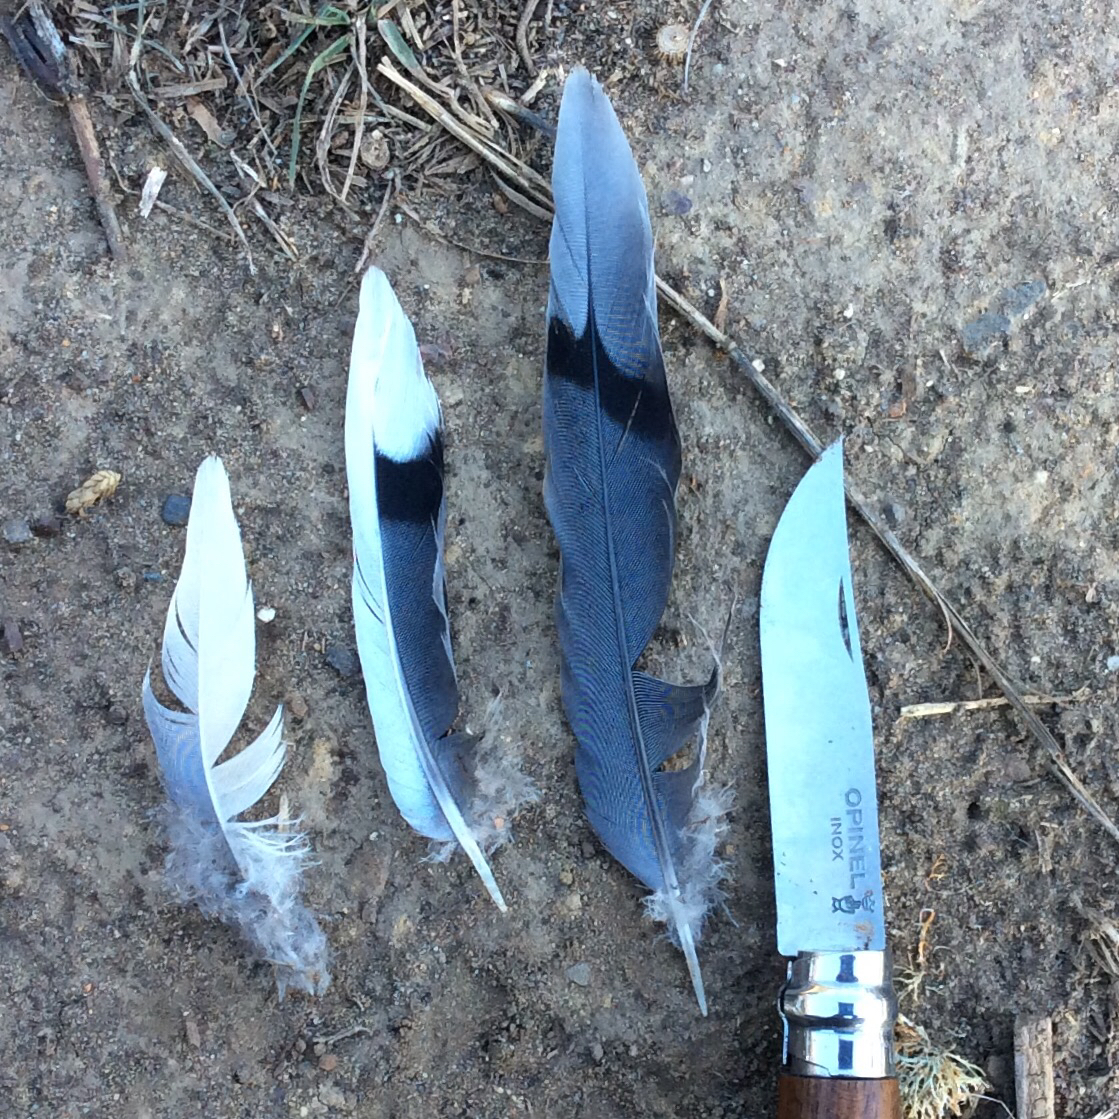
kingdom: Animalia
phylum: Chordata
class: Aves
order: Columbiformes
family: Columbidae
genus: Zenaida
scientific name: Zenaida macroura
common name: Mourning dove
